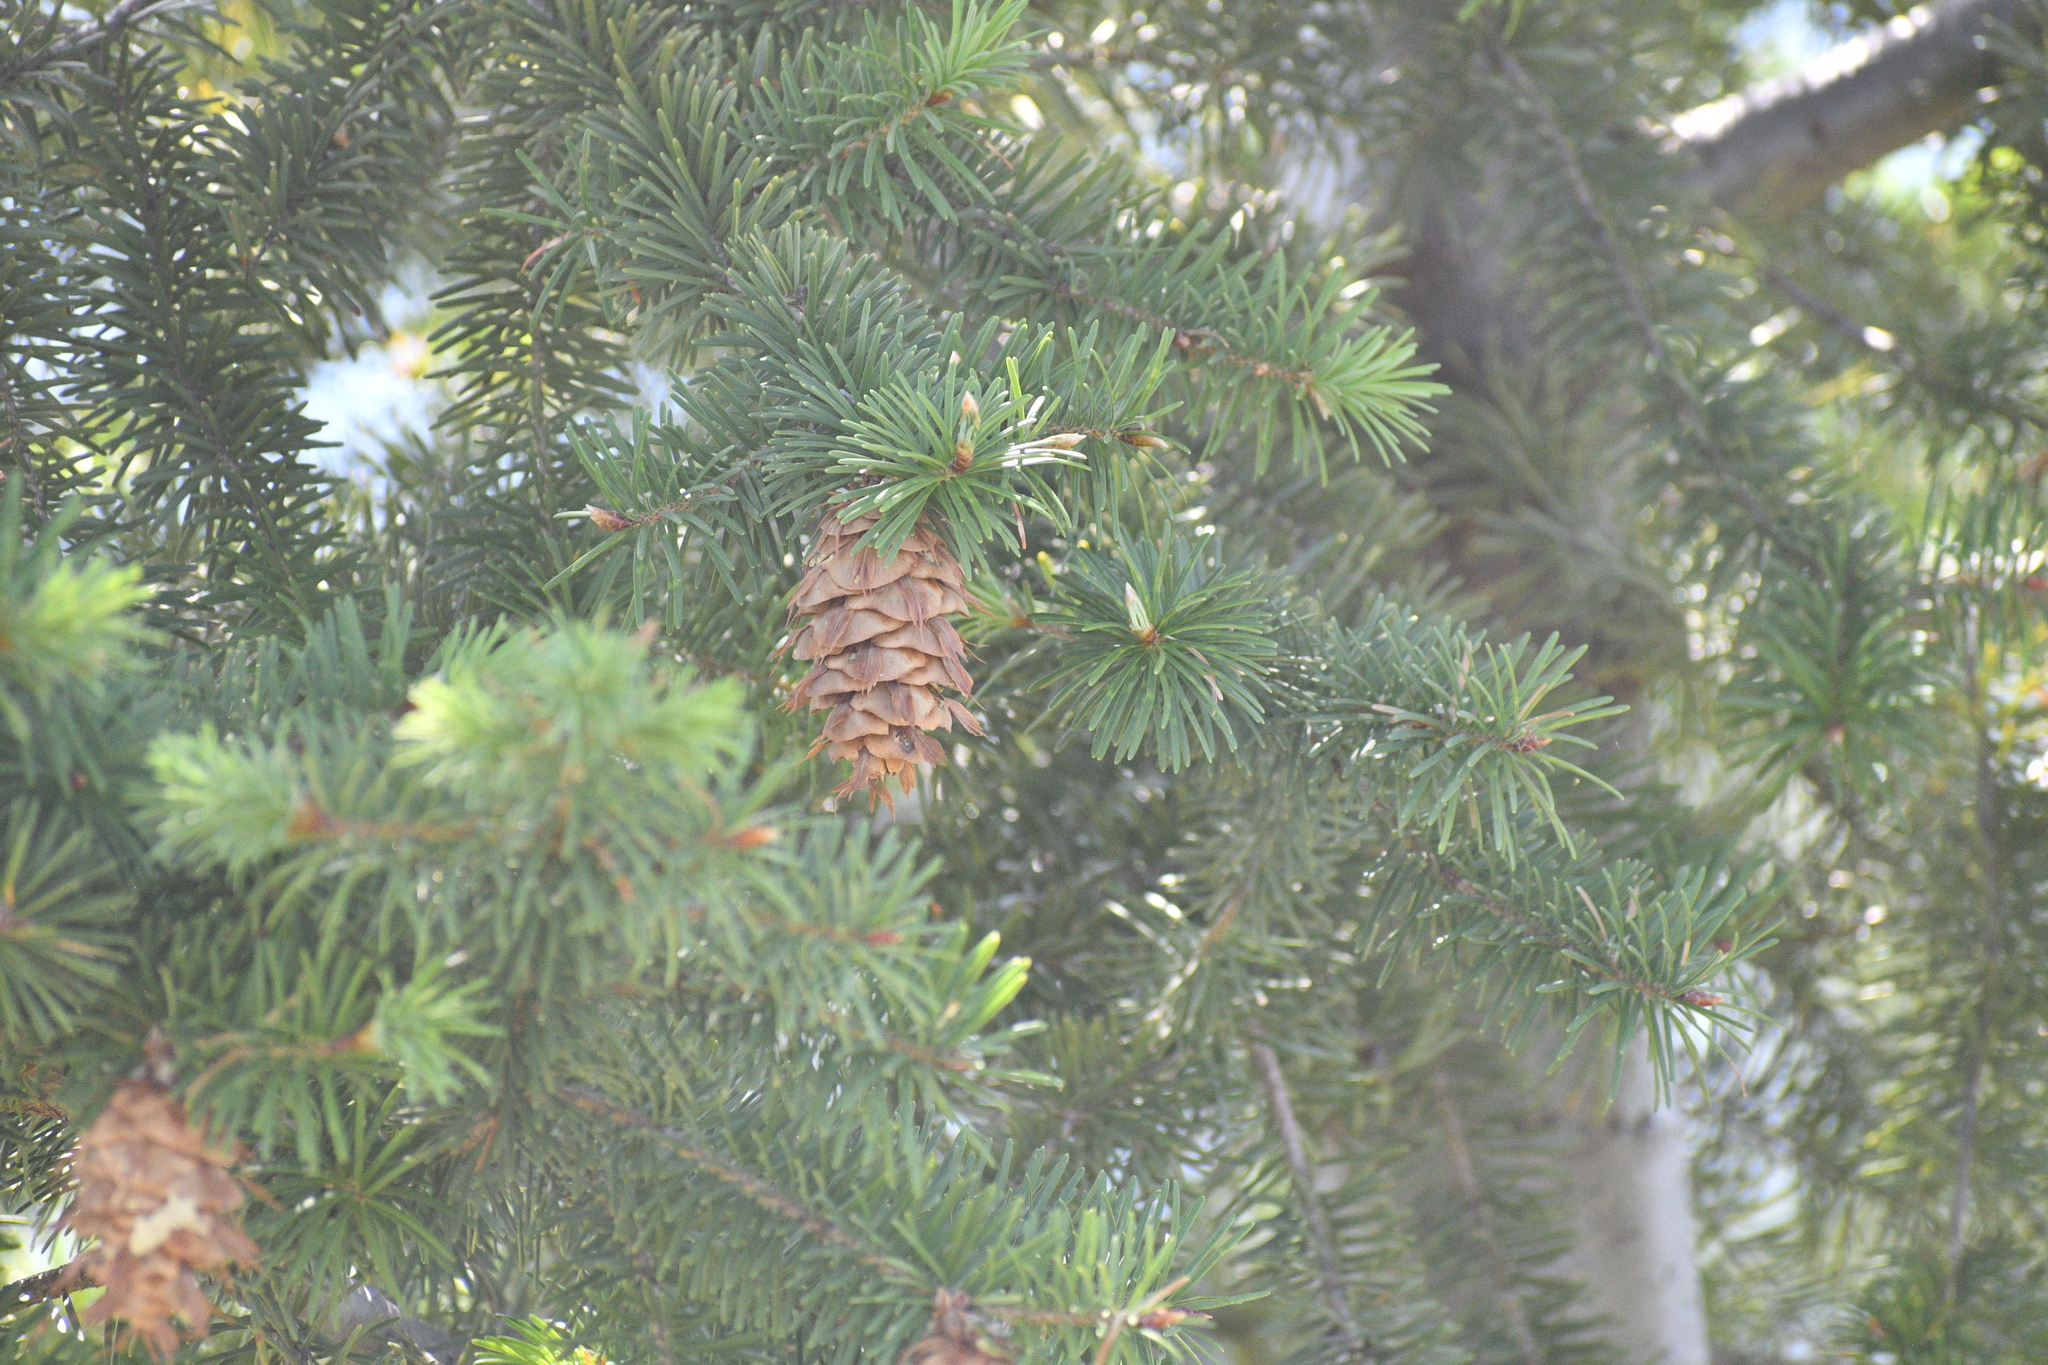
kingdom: Plantae
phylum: Tracheophyta
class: Pinopsida
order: Pinales
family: Pinaceae
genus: Pseudotsuga
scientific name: Pseudotsuga menziesii
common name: Douglas fir
